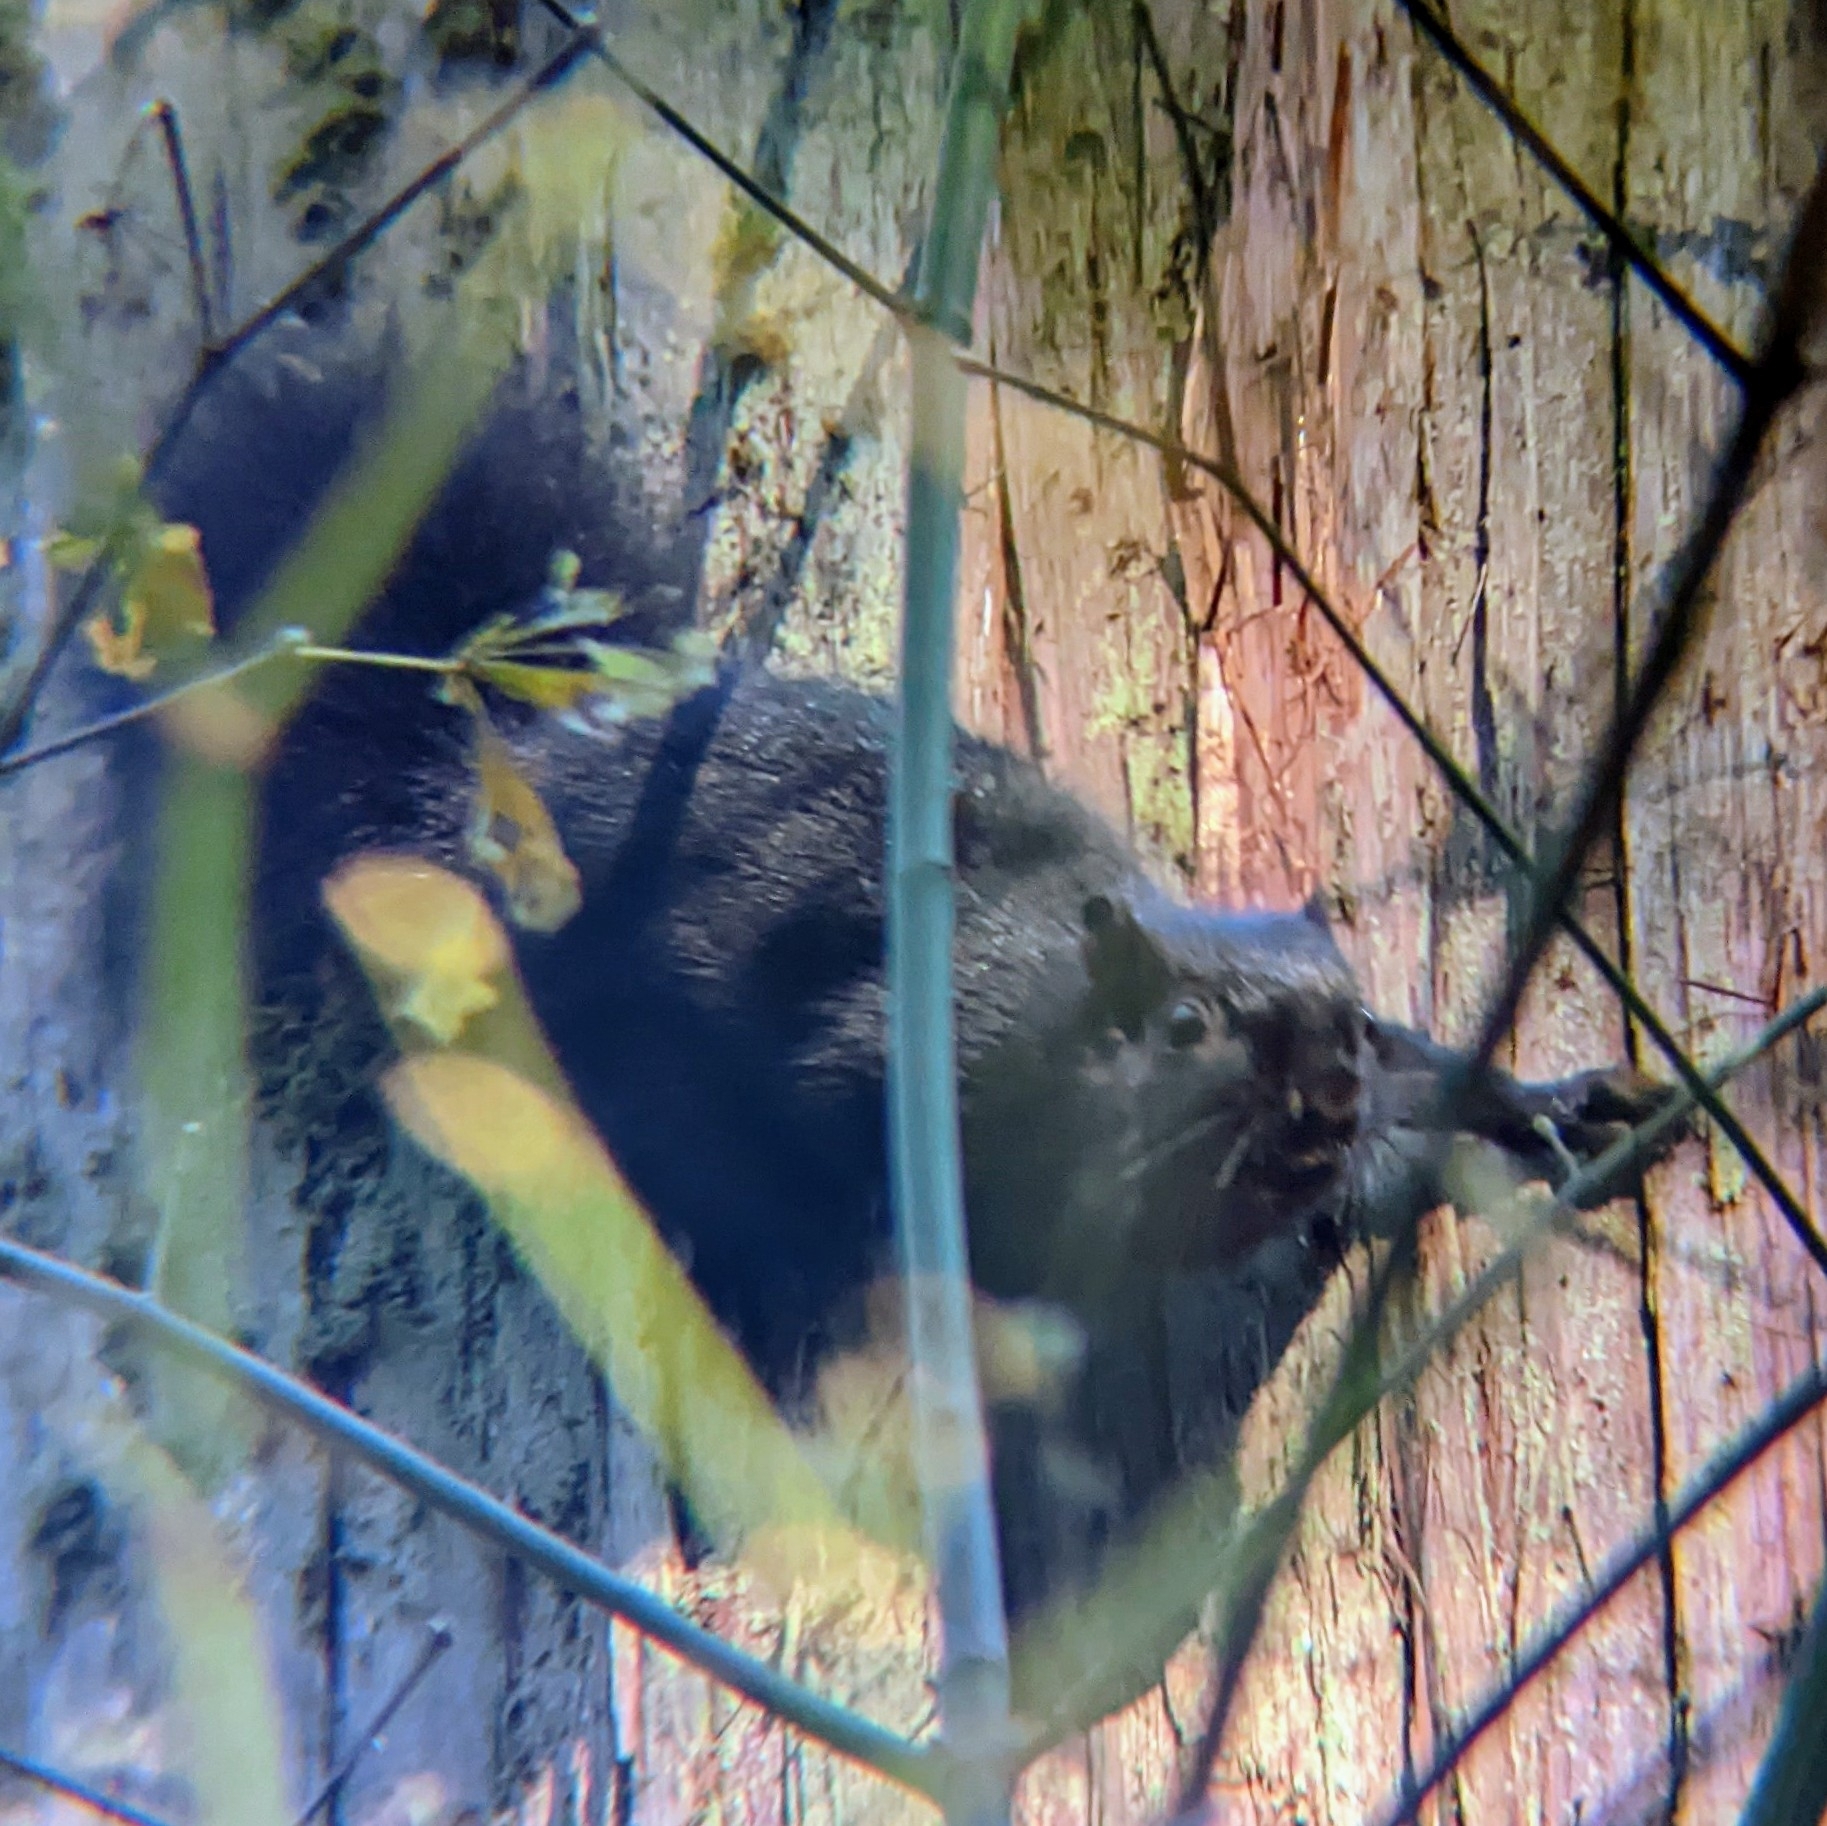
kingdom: Animalia
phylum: Chordata
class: Mammalia
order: Rodentia
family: Sciuridae
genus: Sciurus
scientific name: Sciurus carolinensis
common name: Eastern gray squirrel
